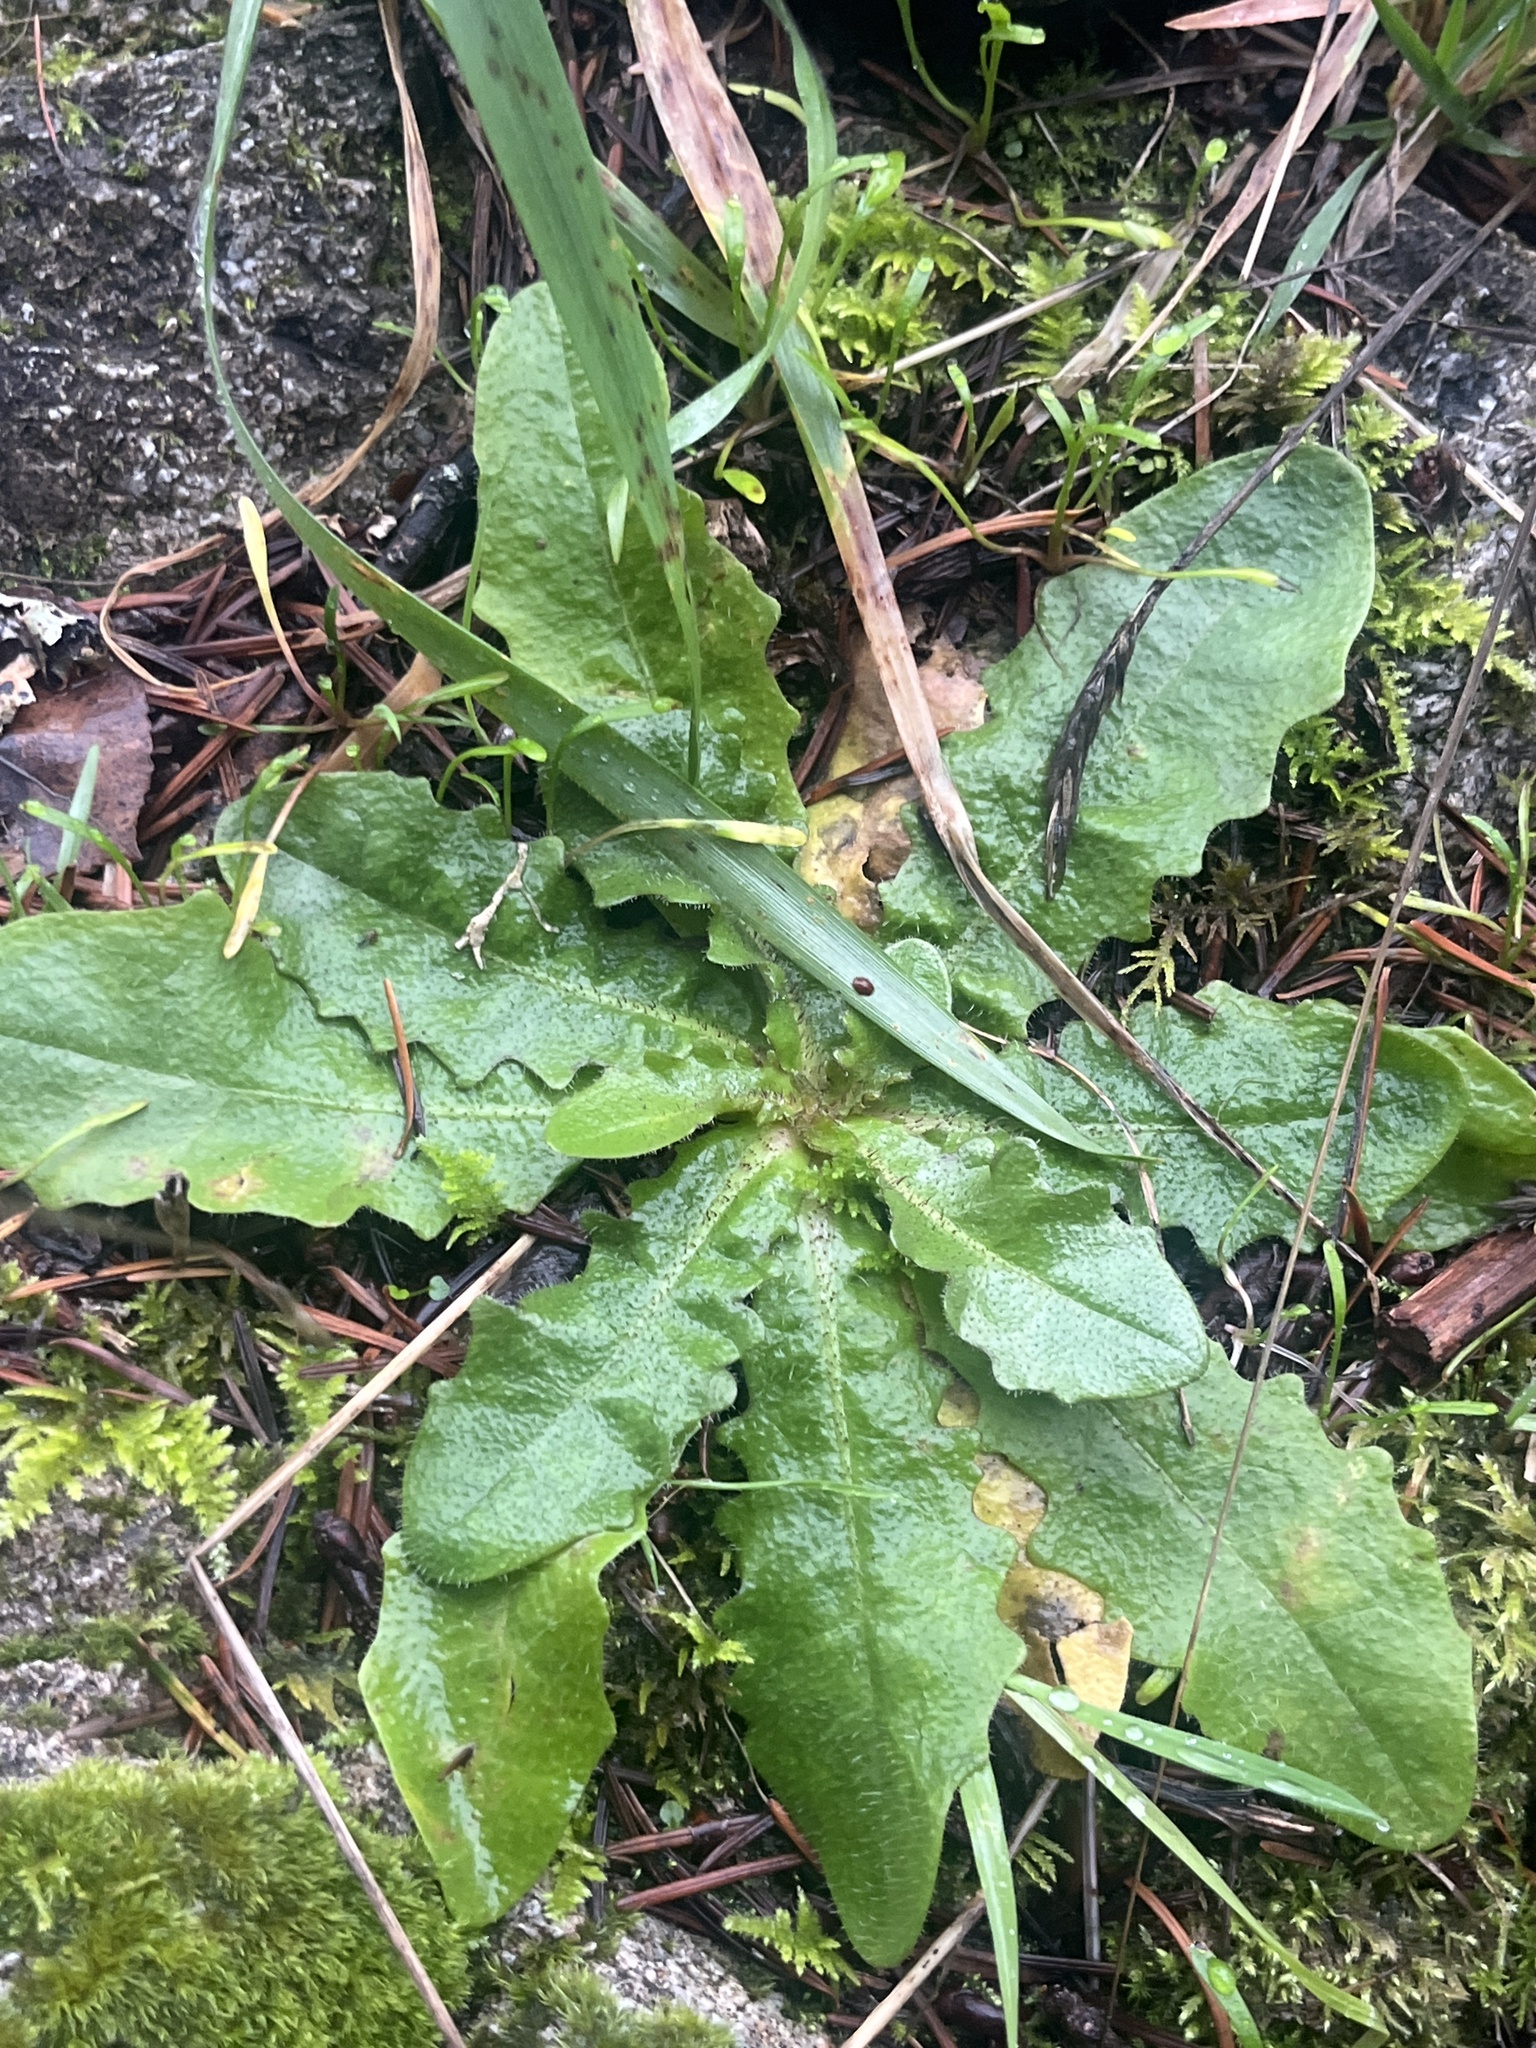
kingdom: Plantae
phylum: Tracheophyta
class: Magnoliopsida
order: Asterales
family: Asteraceae
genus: Hypochaeris
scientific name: Hypochaeris radicata
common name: Flatweed
